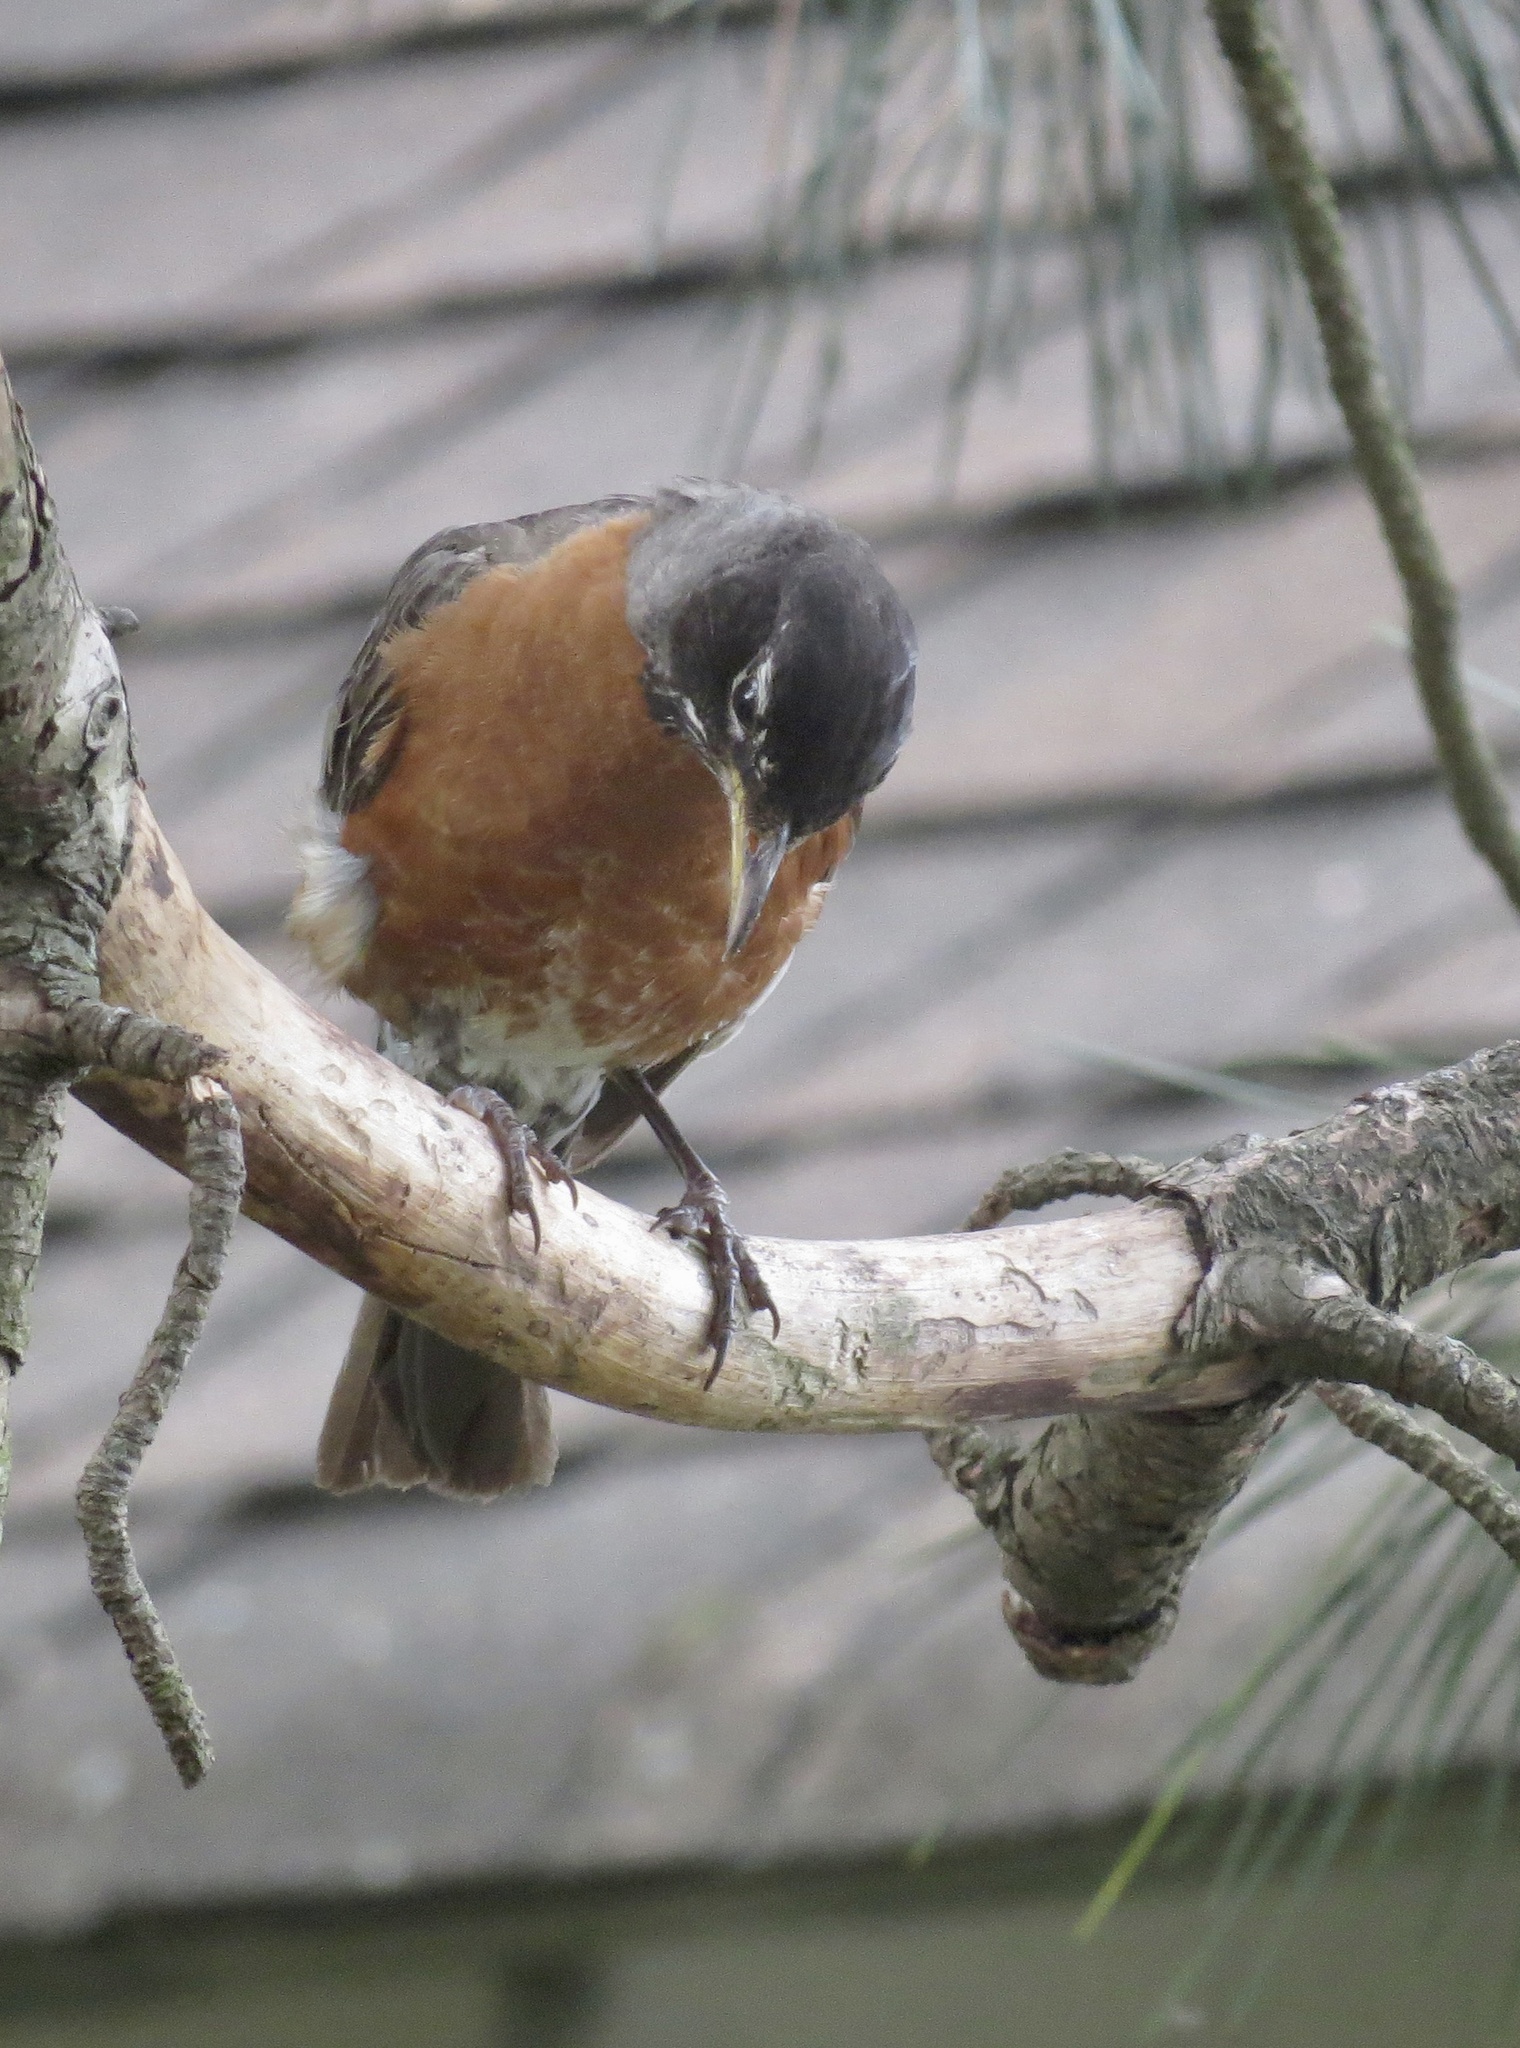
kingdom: Animalia
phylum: Chordata
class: Aves
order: Passeriformes
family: Turdidae
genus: Turdus
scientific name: Turdus migratorius
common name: American robin
